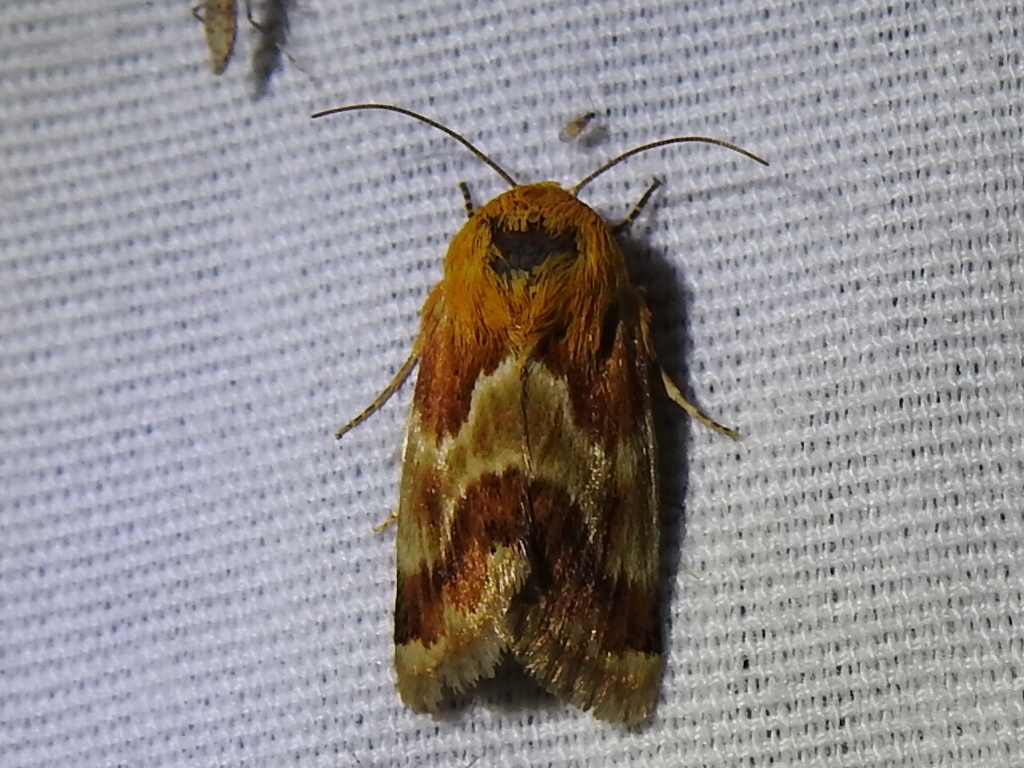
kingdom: Animalia
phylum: Arthropoda
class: Insecta
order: Lepidoptera
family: Noctuidae
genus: Schinia
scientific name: Schinia siren
